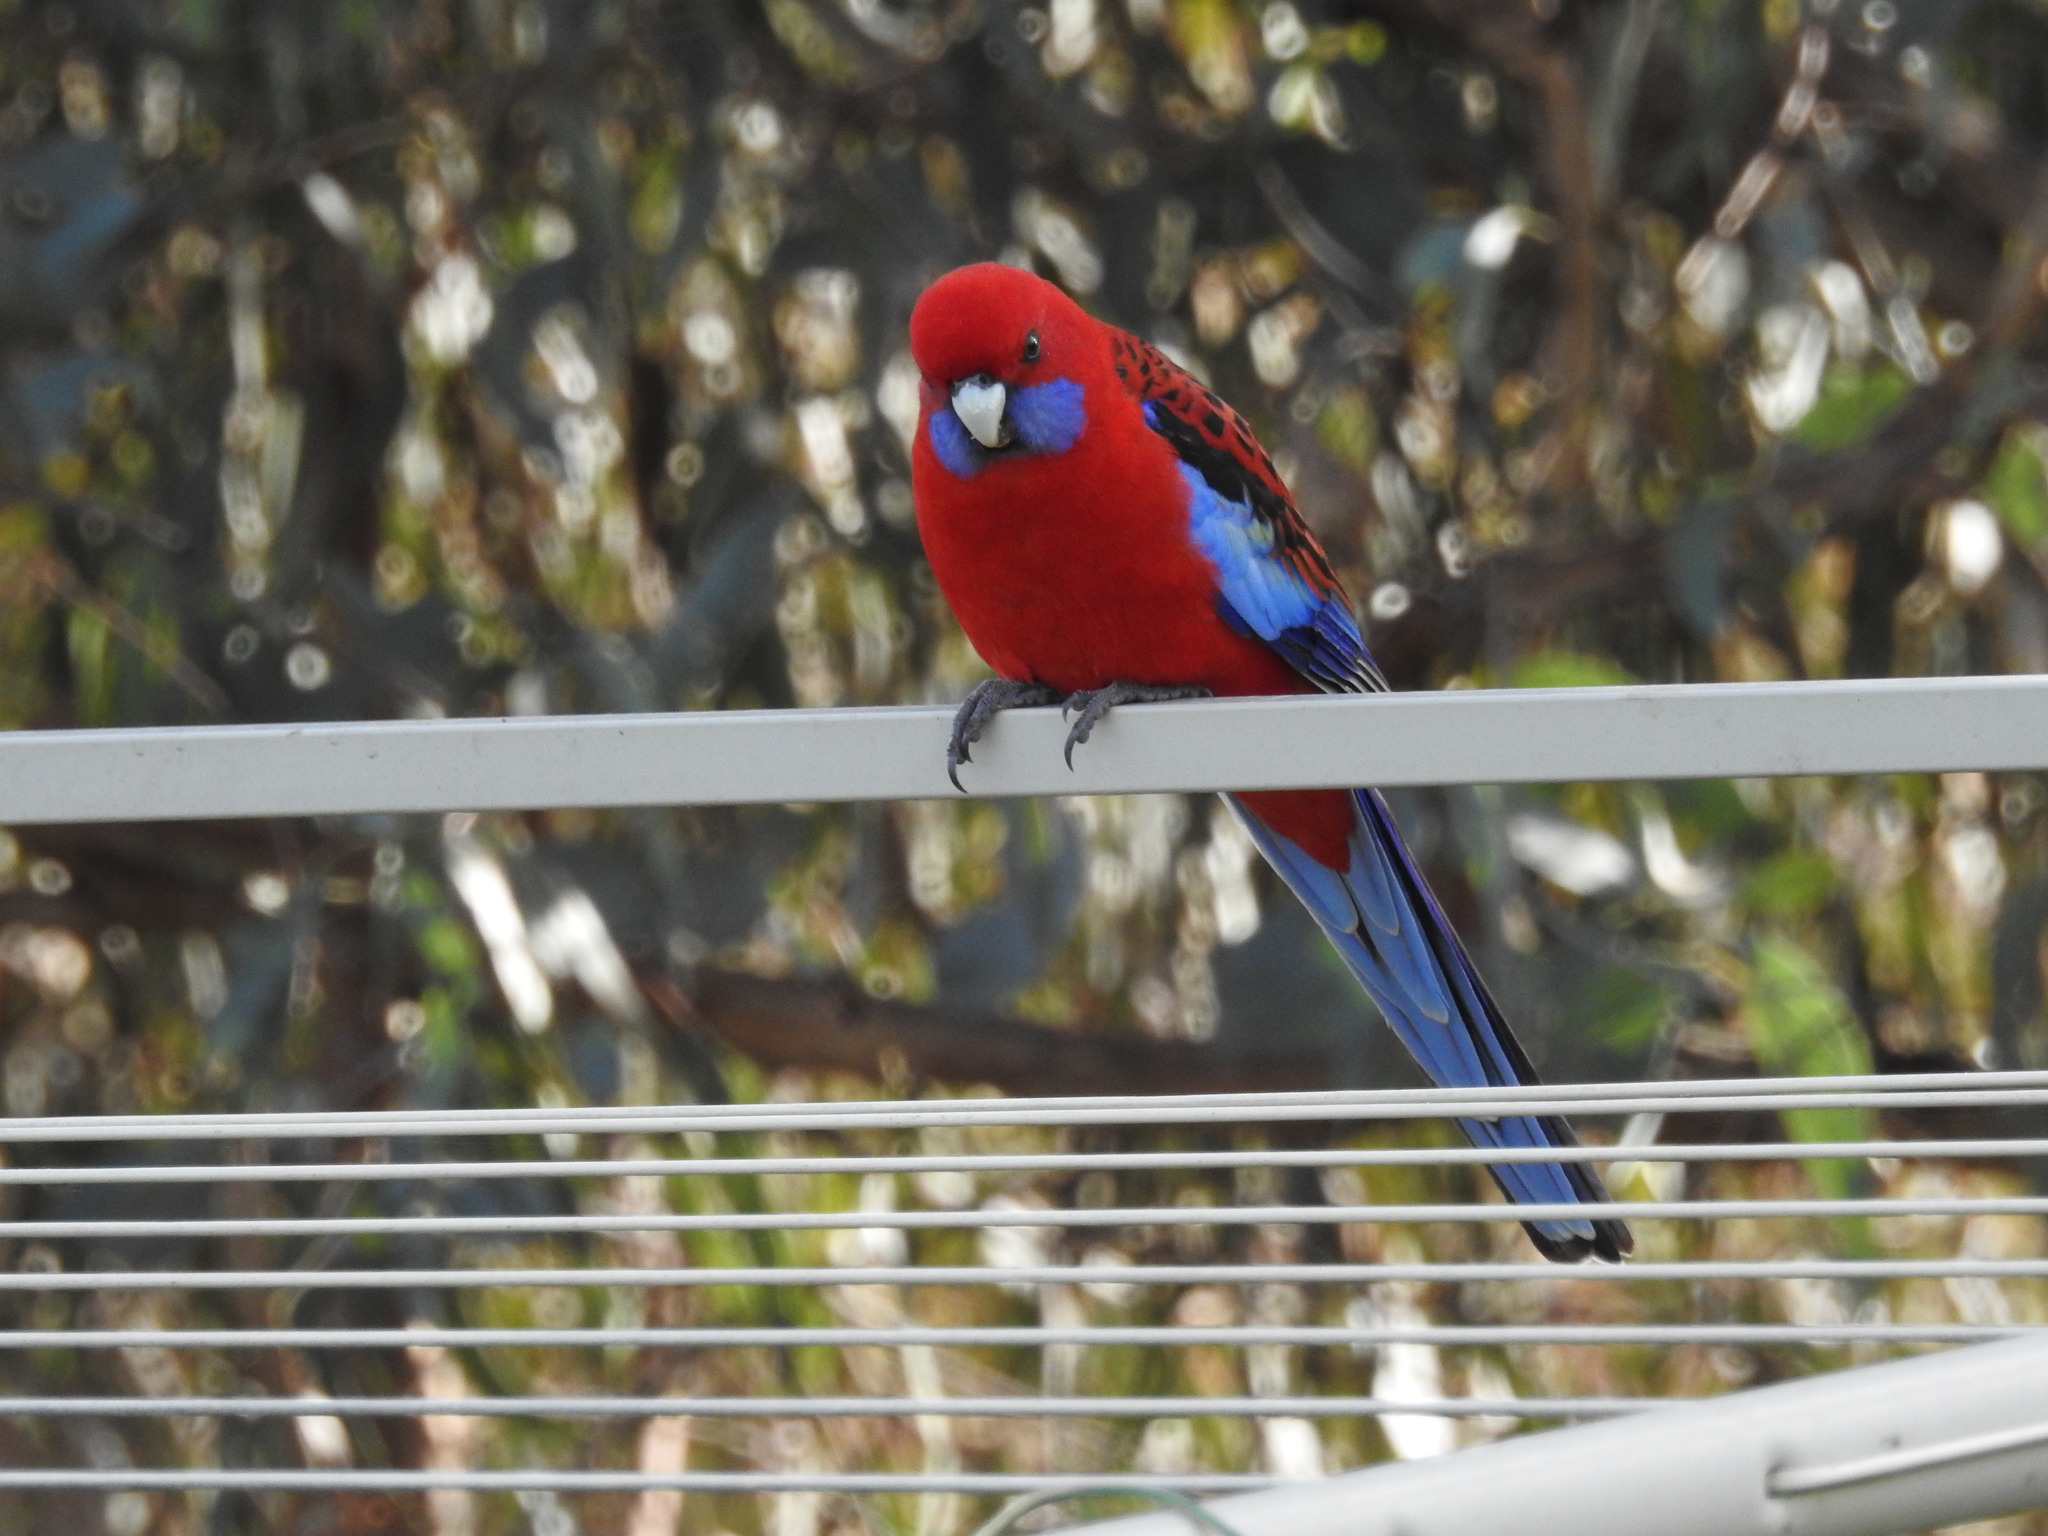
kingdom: Animalia
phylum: Chordata
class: Aves
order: Psittaciformes
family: Psittacidae
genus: Platycercus
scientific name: Platycercus elegans
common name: Crimson rosella
